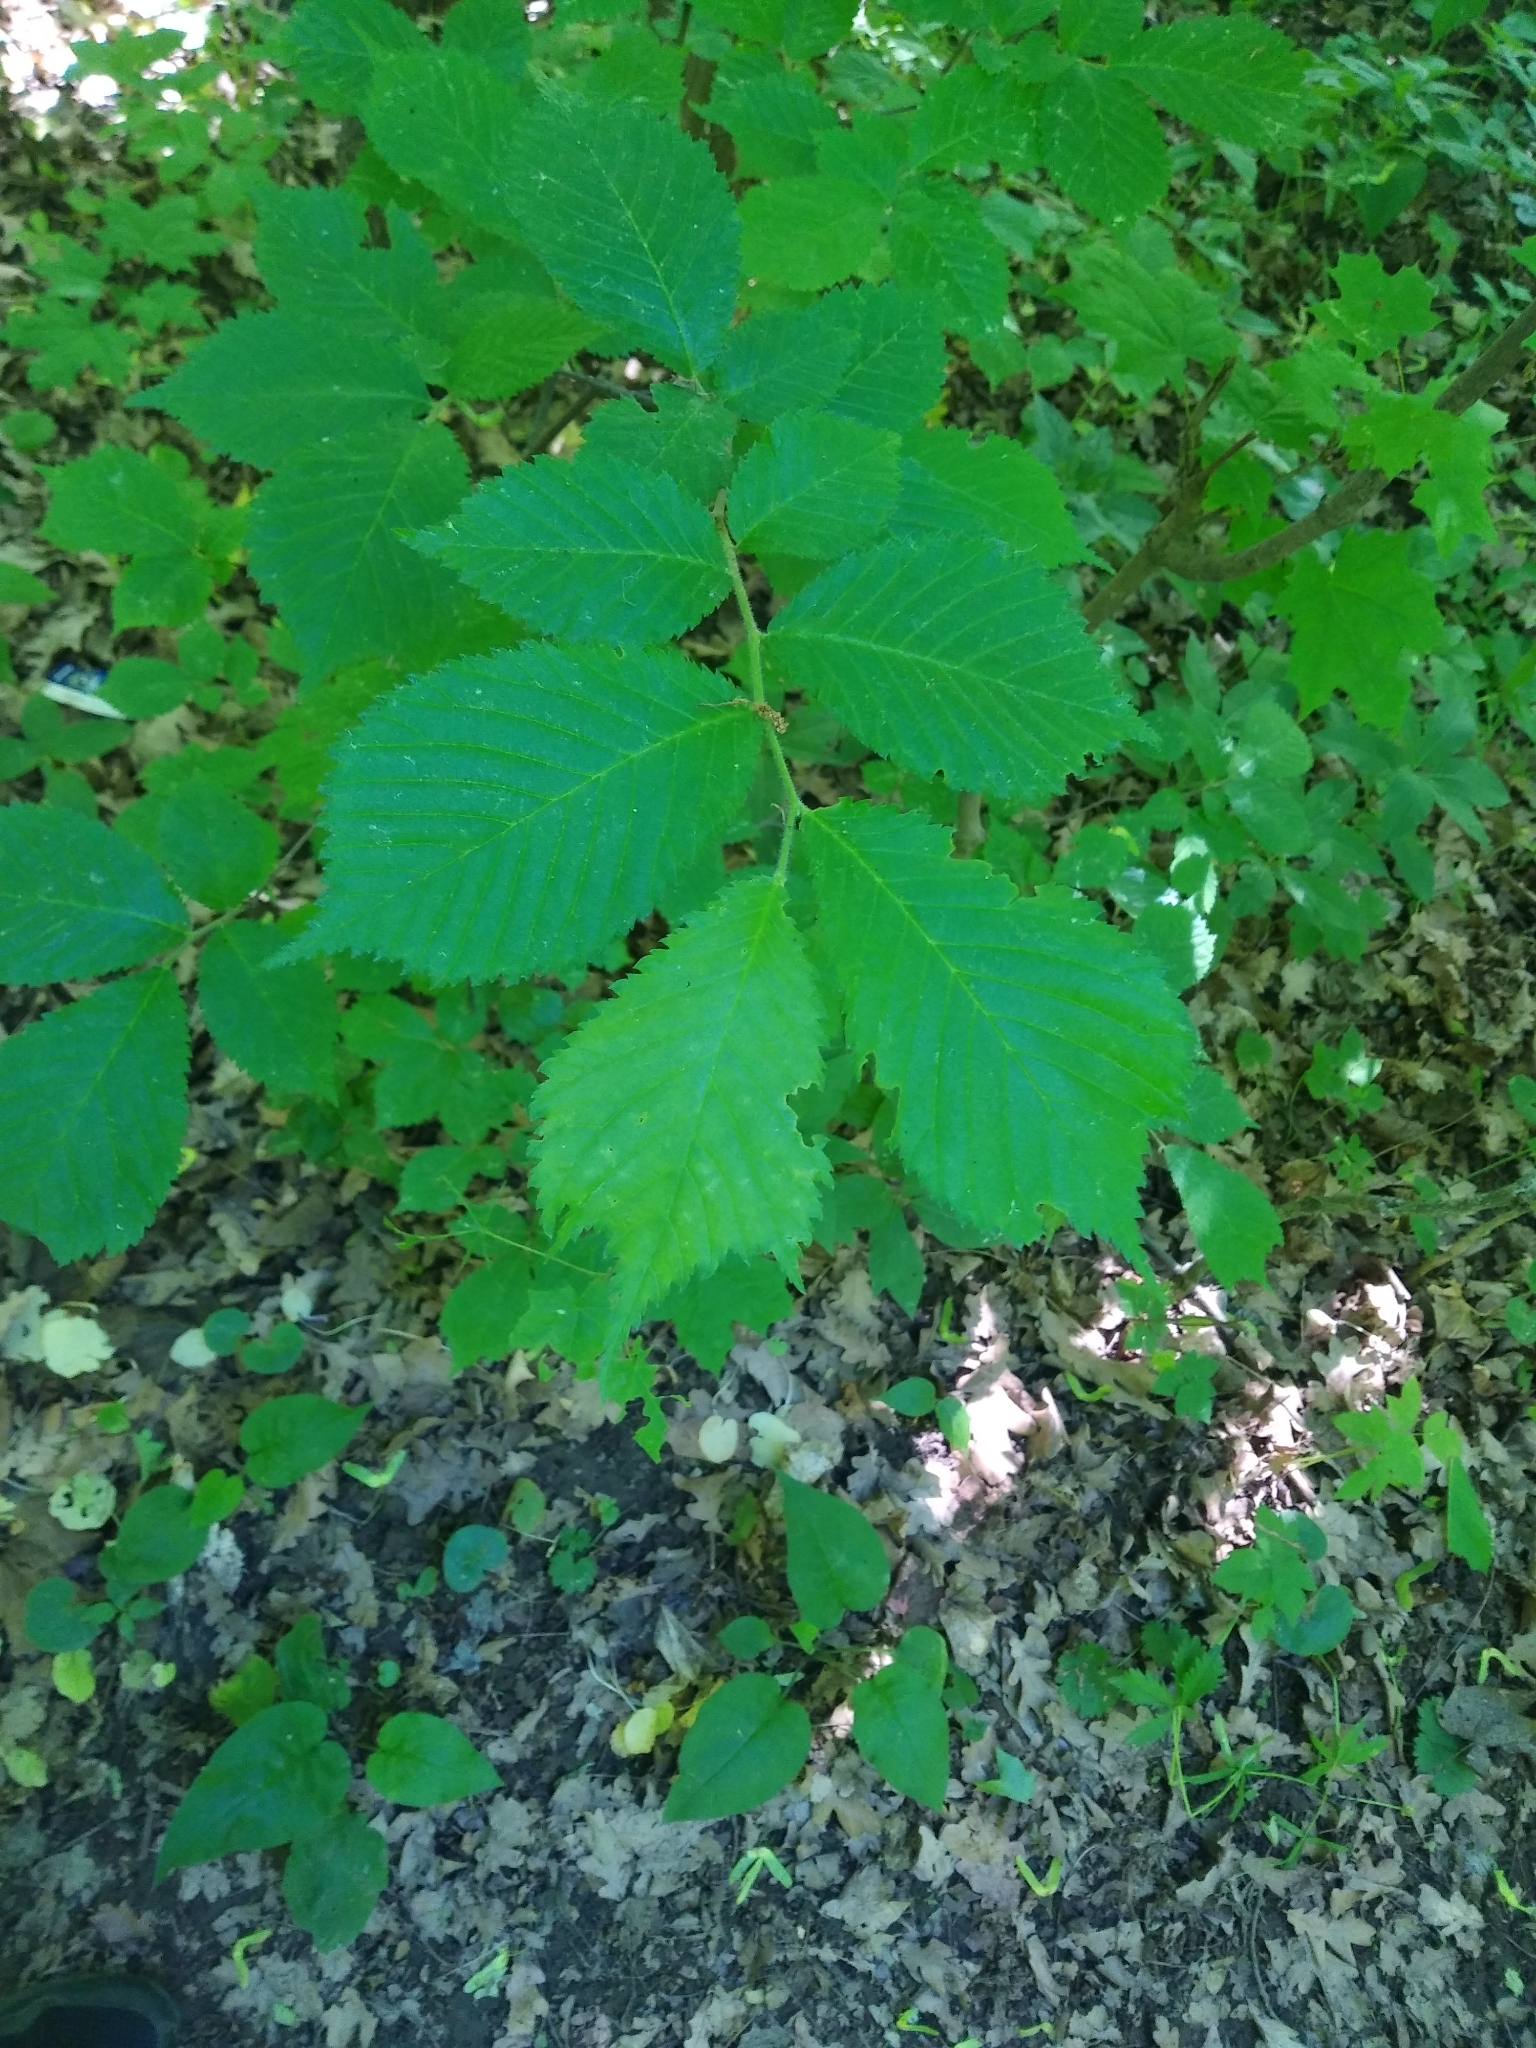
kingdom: Plantae
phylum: Tracheophyta
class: Magnoliopsida
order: Rosales
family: Ulmaceae
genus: Ulmus
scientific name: Ulmus glabra
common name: Wych elm
